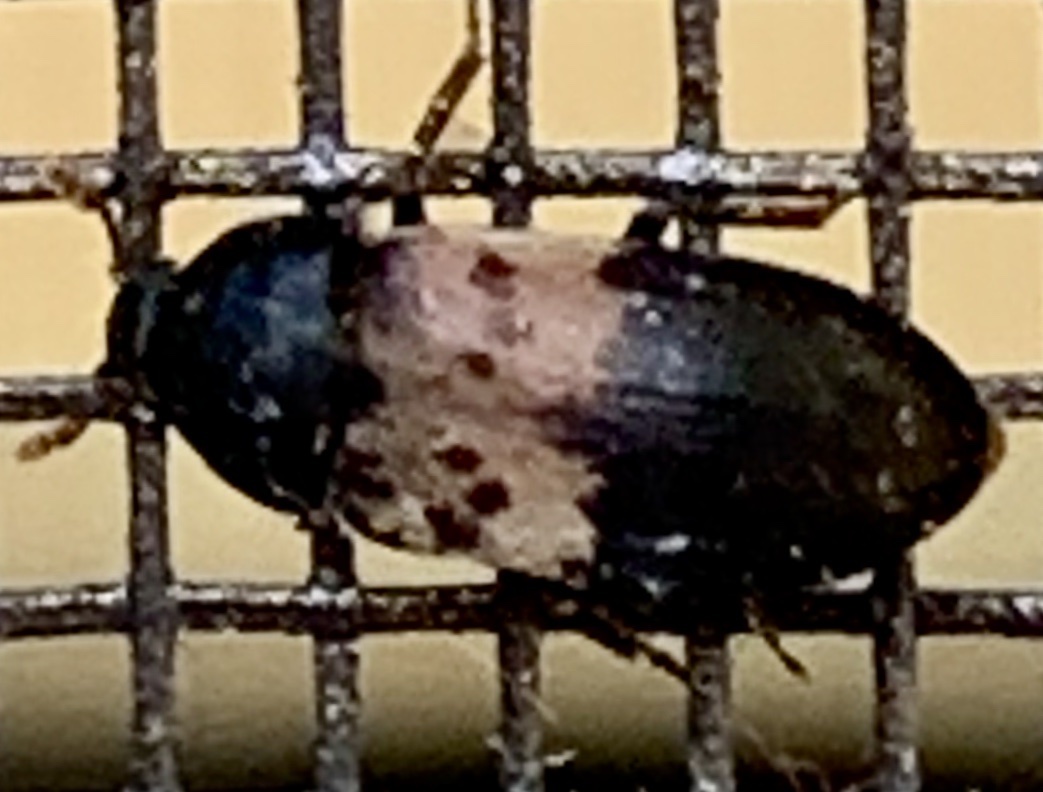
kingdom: Animalia
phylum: Arthropoda
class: Insecta
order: Coleoptera
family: Dermestidae
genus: Dermestes
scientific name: Dermestes lardarius
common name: Larder beetle
